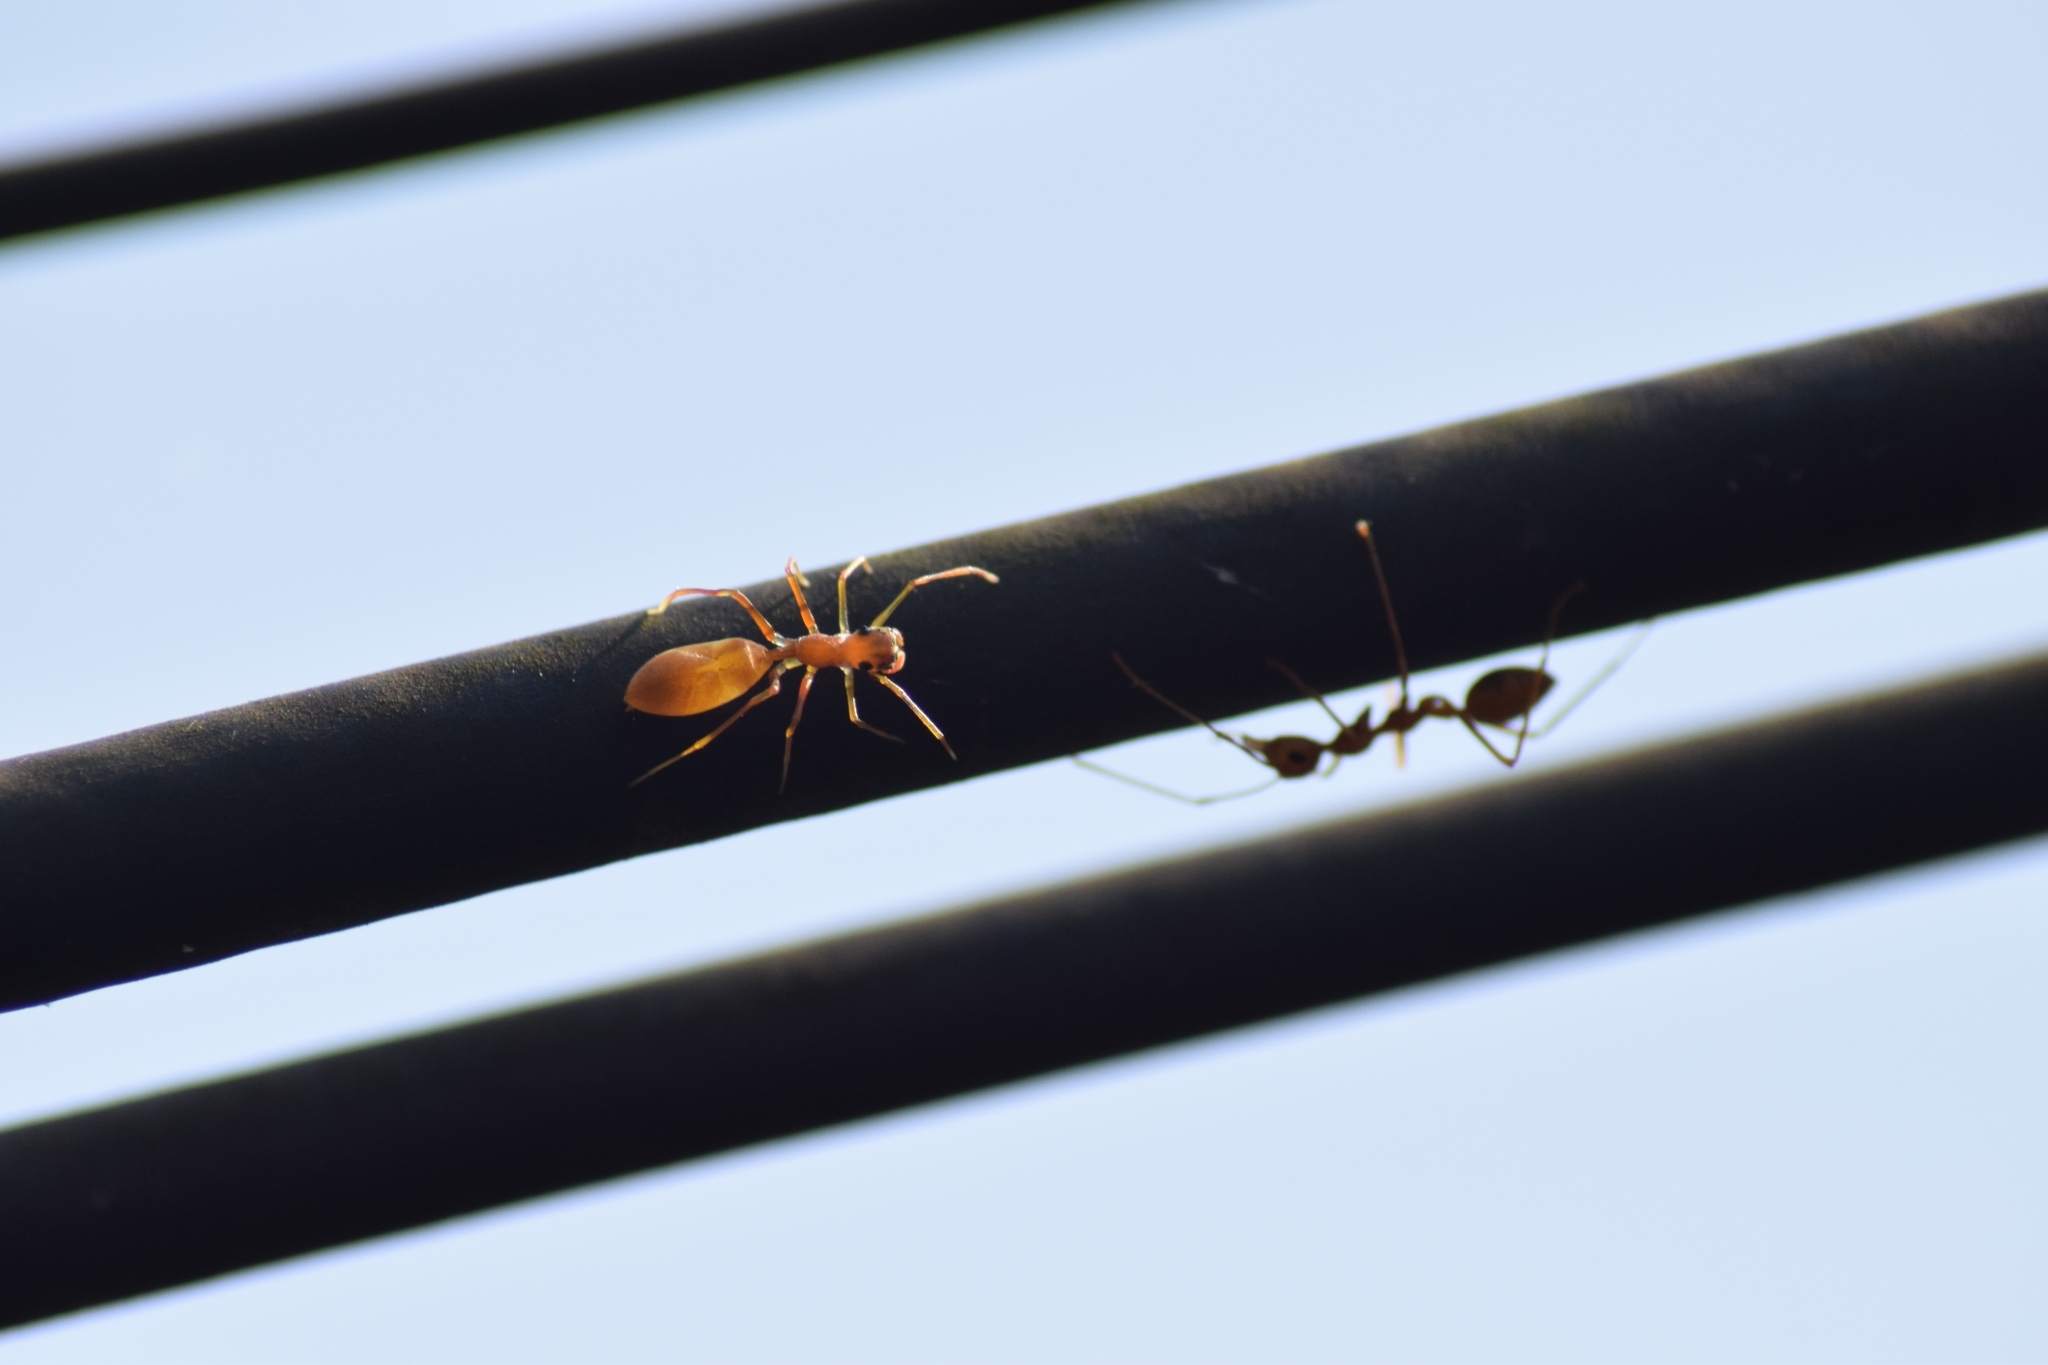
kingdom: Animalia
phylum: Arthropoda
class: Arachnida
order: Araneae
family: Salticidae
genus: Myrmaplata
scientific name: Myrmaplata plataleoides
